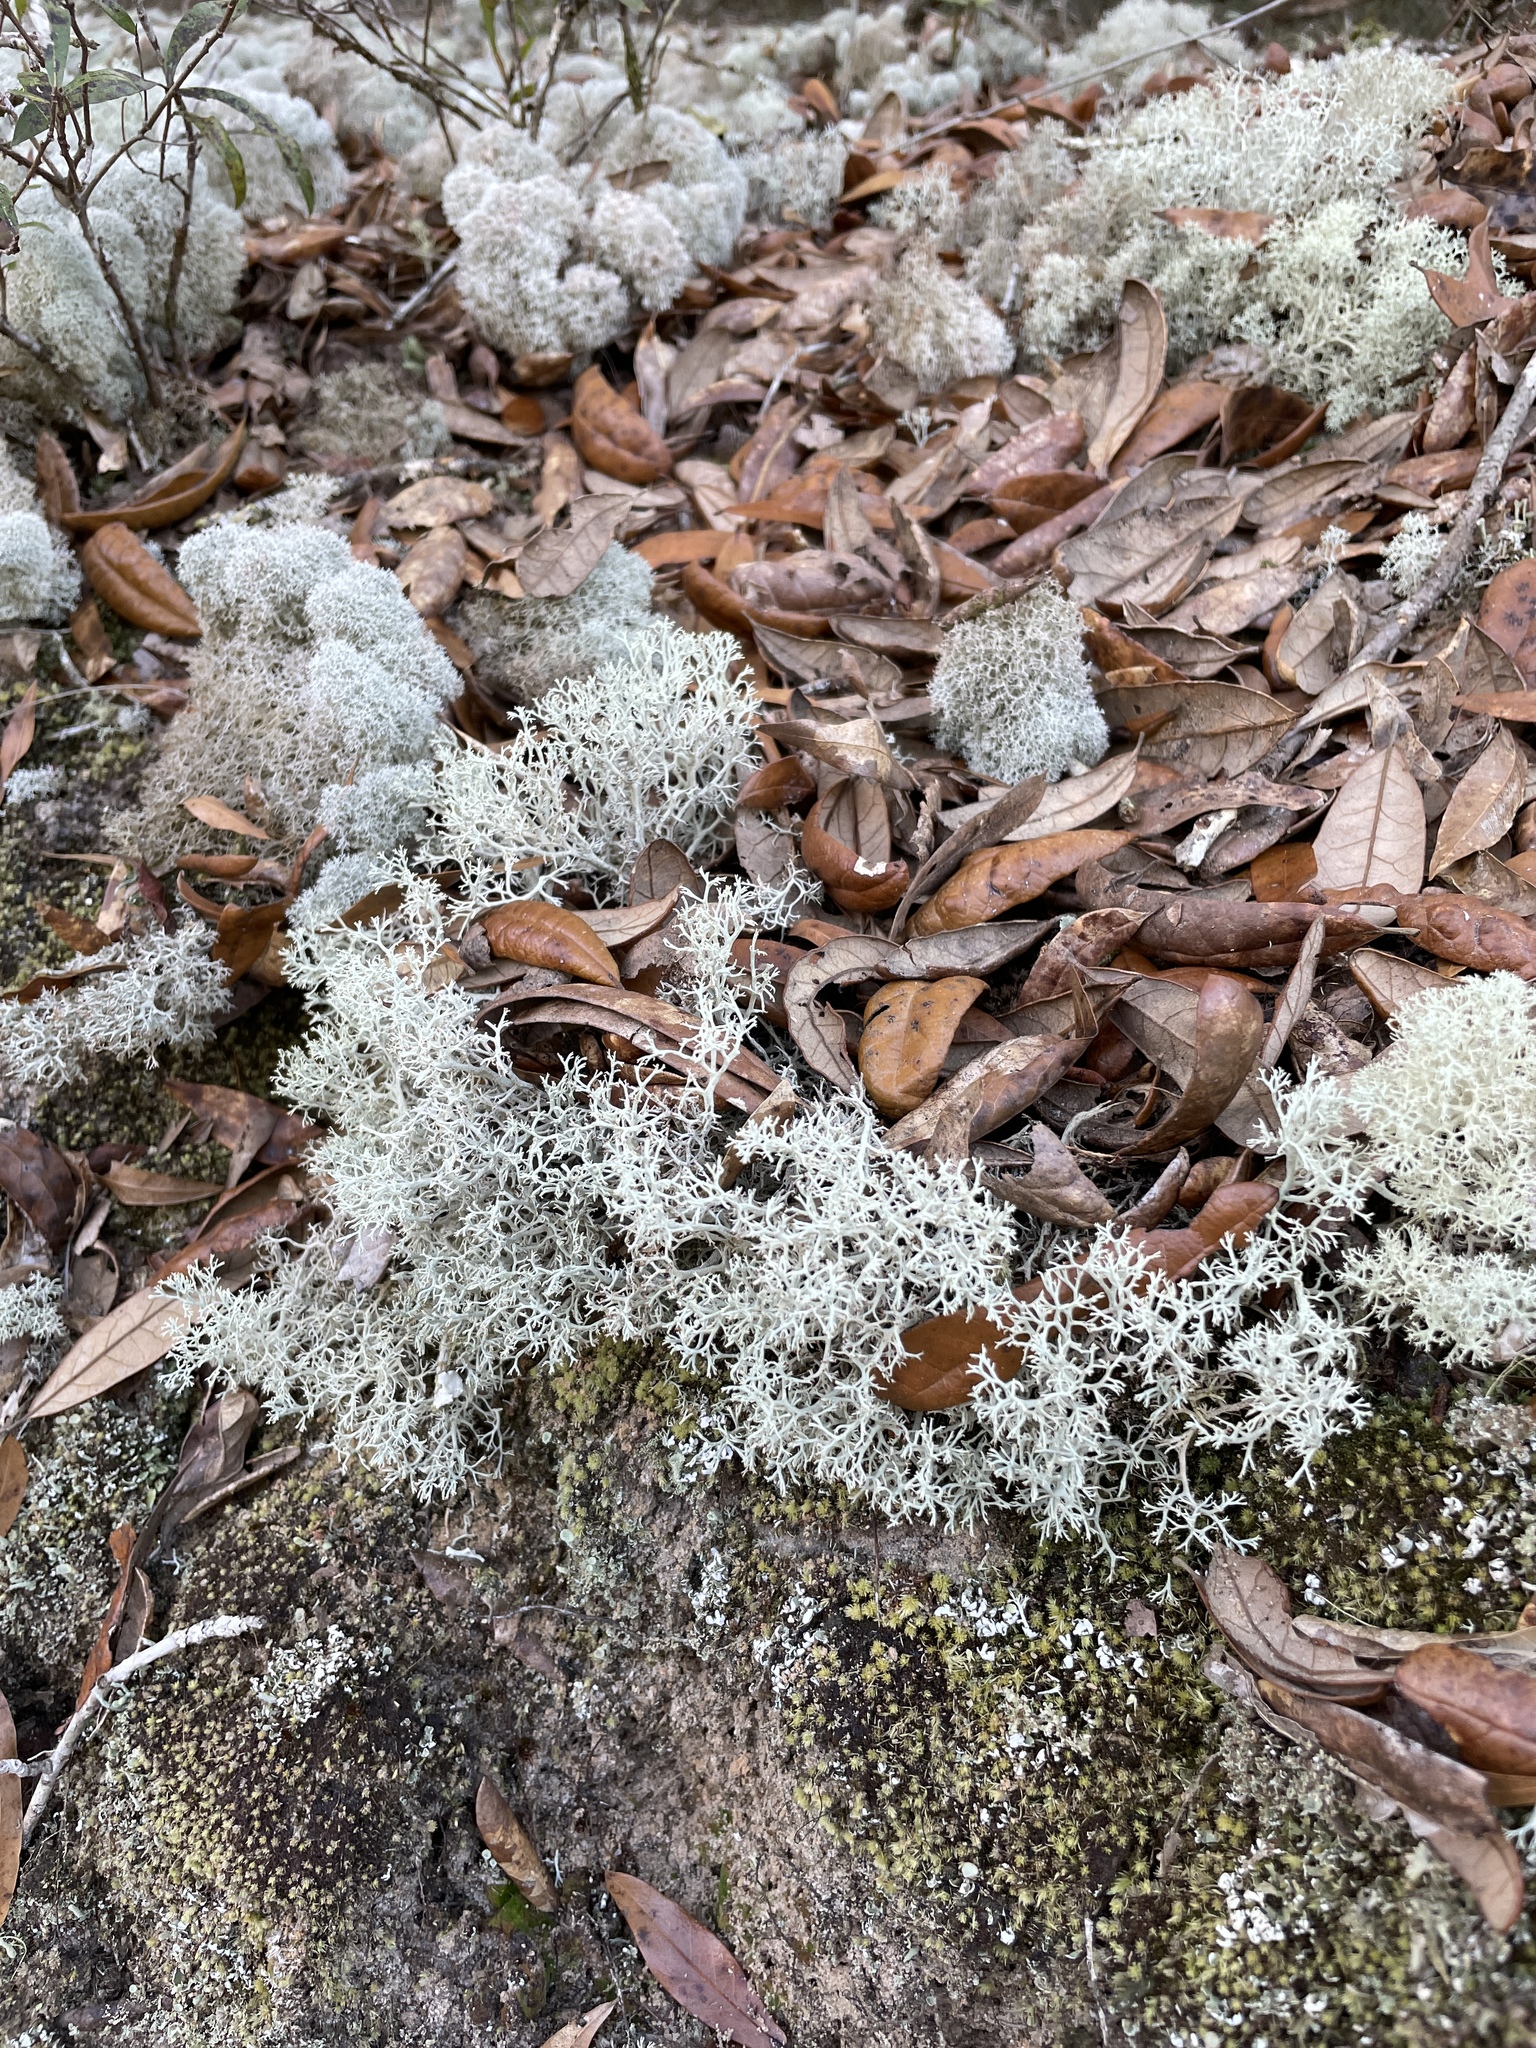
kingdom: Fungi
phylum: Ascomycota
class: Lecanoromycetes
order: Lecanorales
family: Cladoniaceae
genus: Cladonia
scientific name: Cladonia evansii
